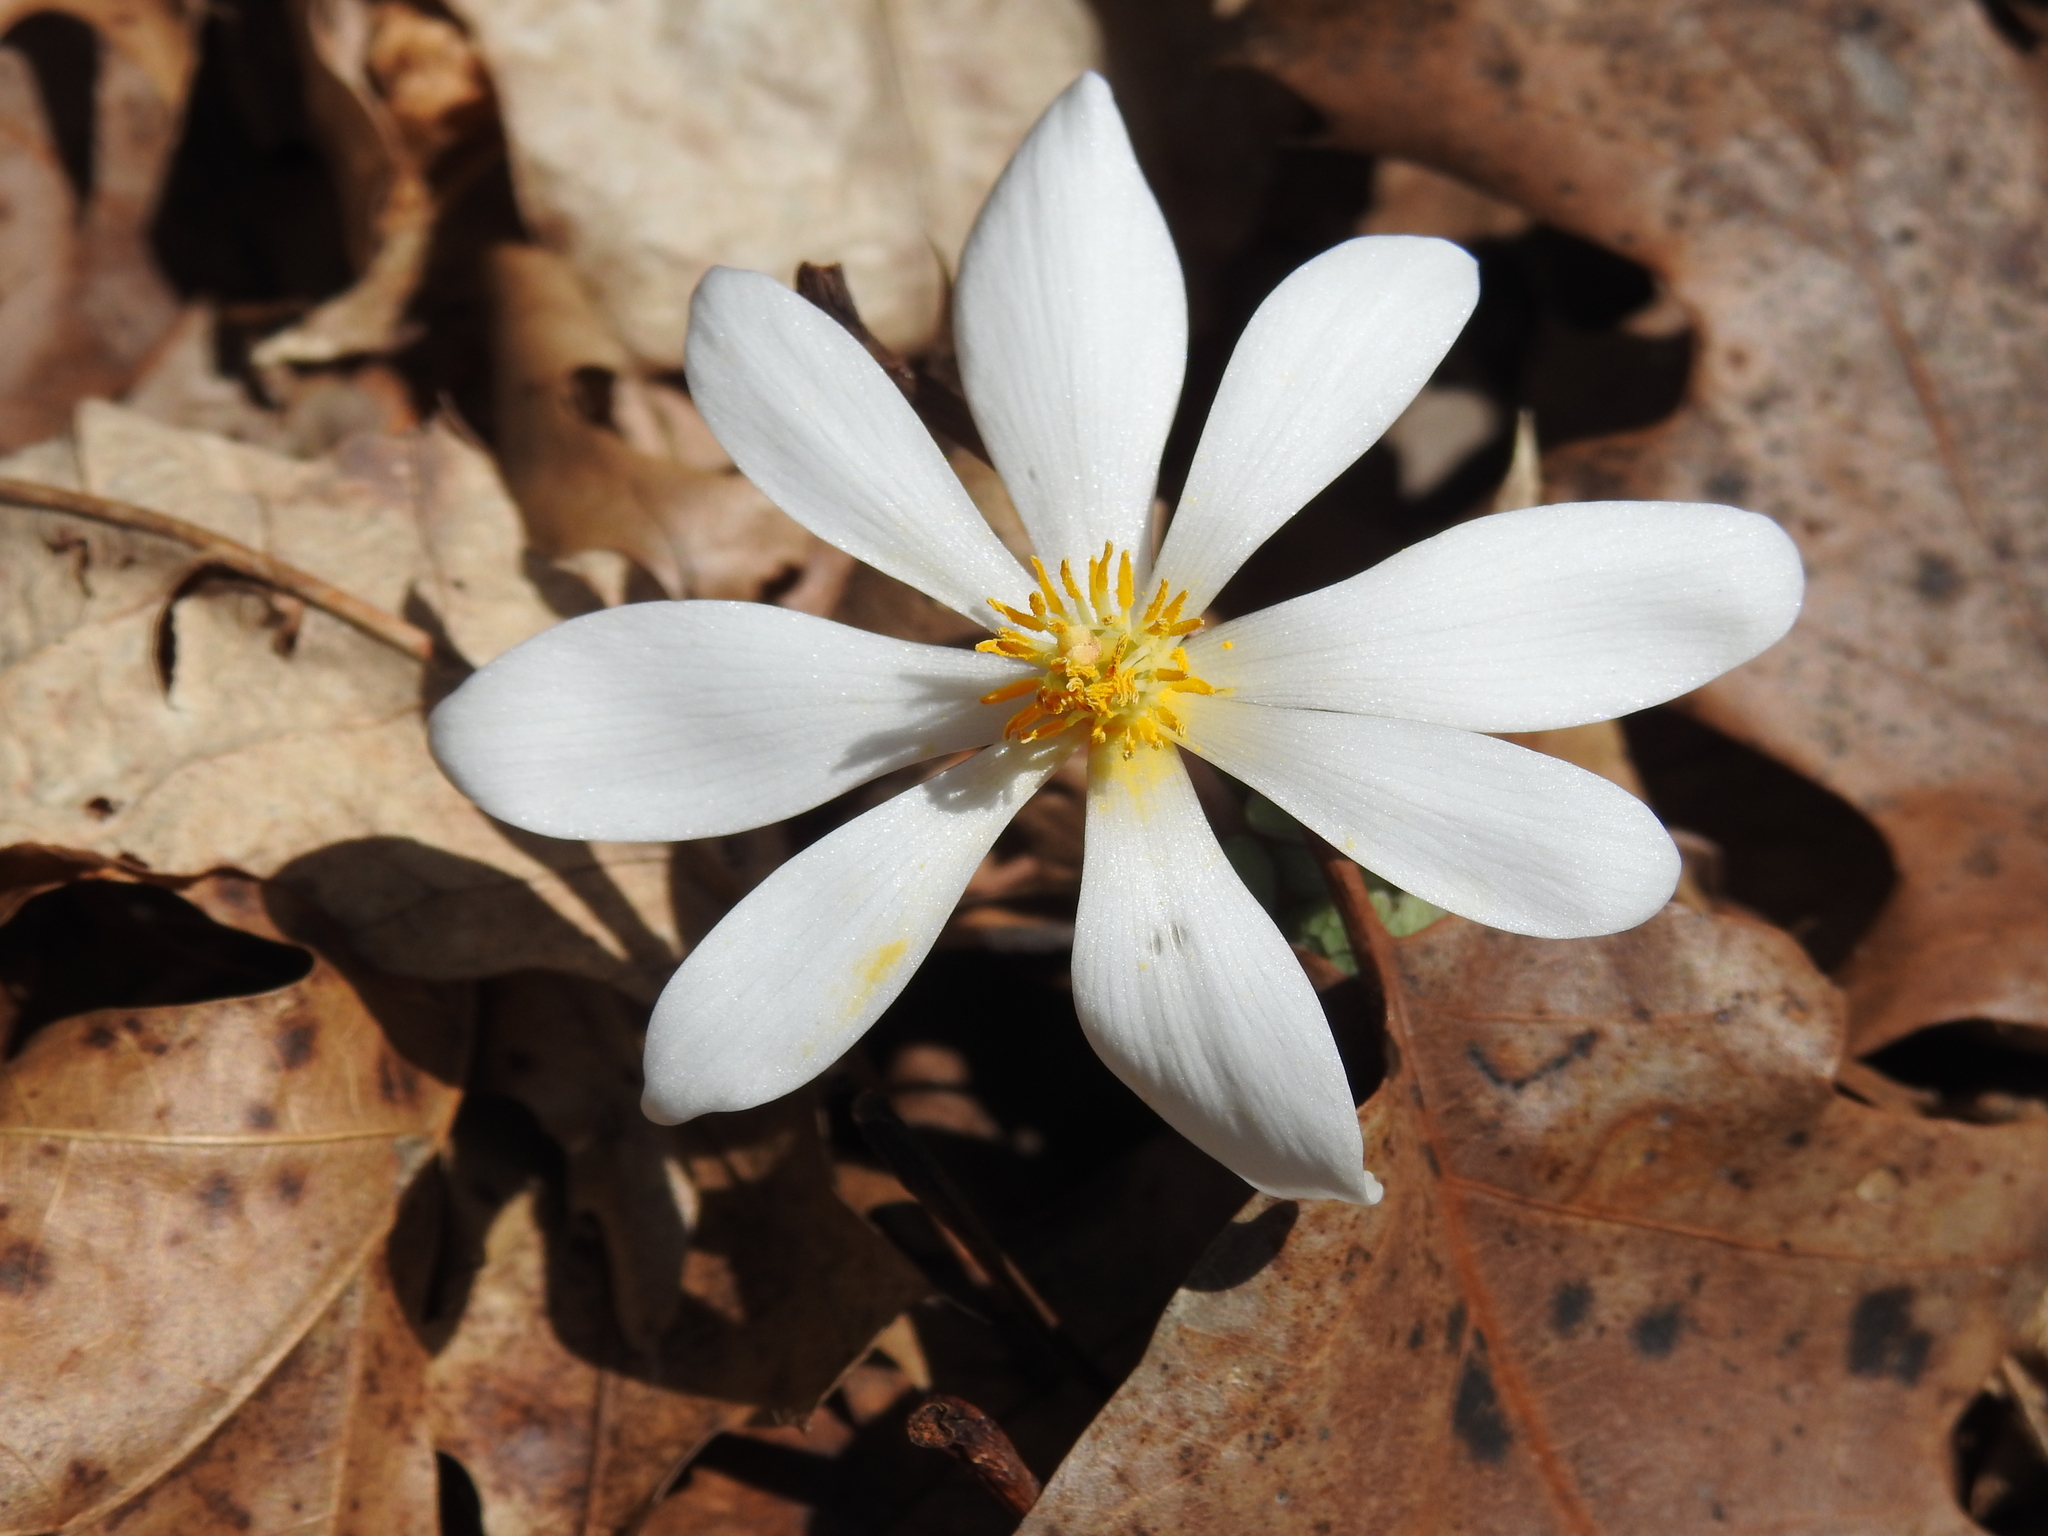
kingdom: Plantae
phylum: Tracheophyta
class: Magnoliopsida
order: Ranunculales
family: Papaveraceae
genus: Sanguinaria
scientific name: Sanguinaria canadensis
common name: Bloodroot
